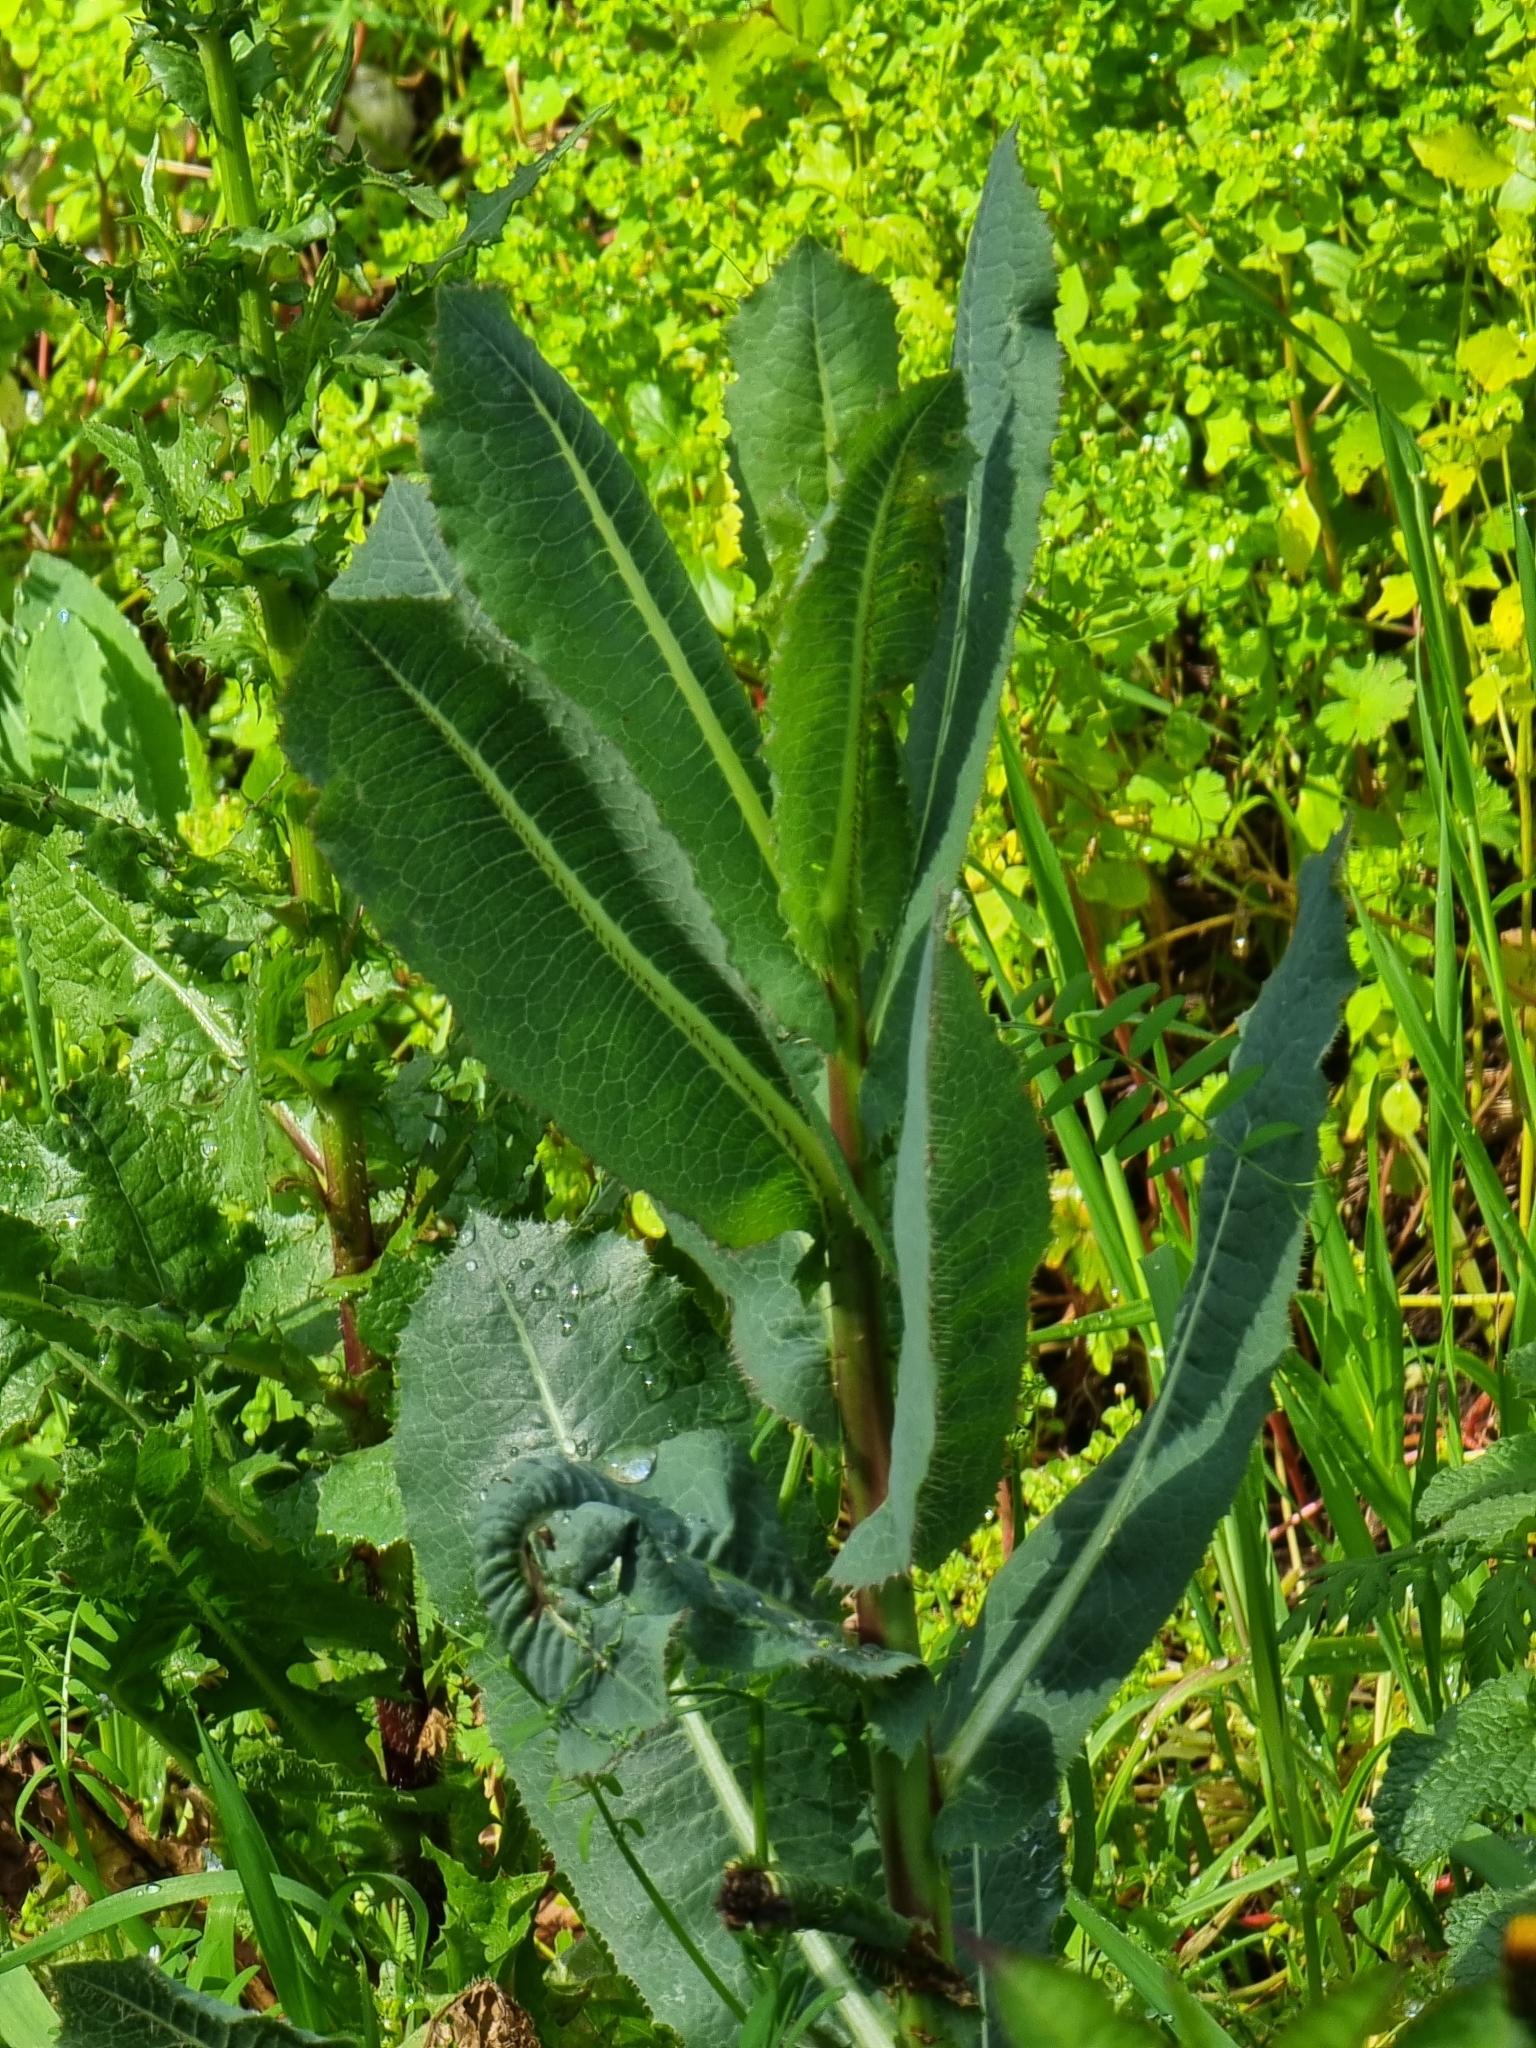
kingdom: Plantae
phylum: Tracheophyta
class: Magnoliopsida
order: Asterales
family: Asteraceae
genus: Lactuca
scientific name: Lactuca serriola
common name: Prickly lettuce
